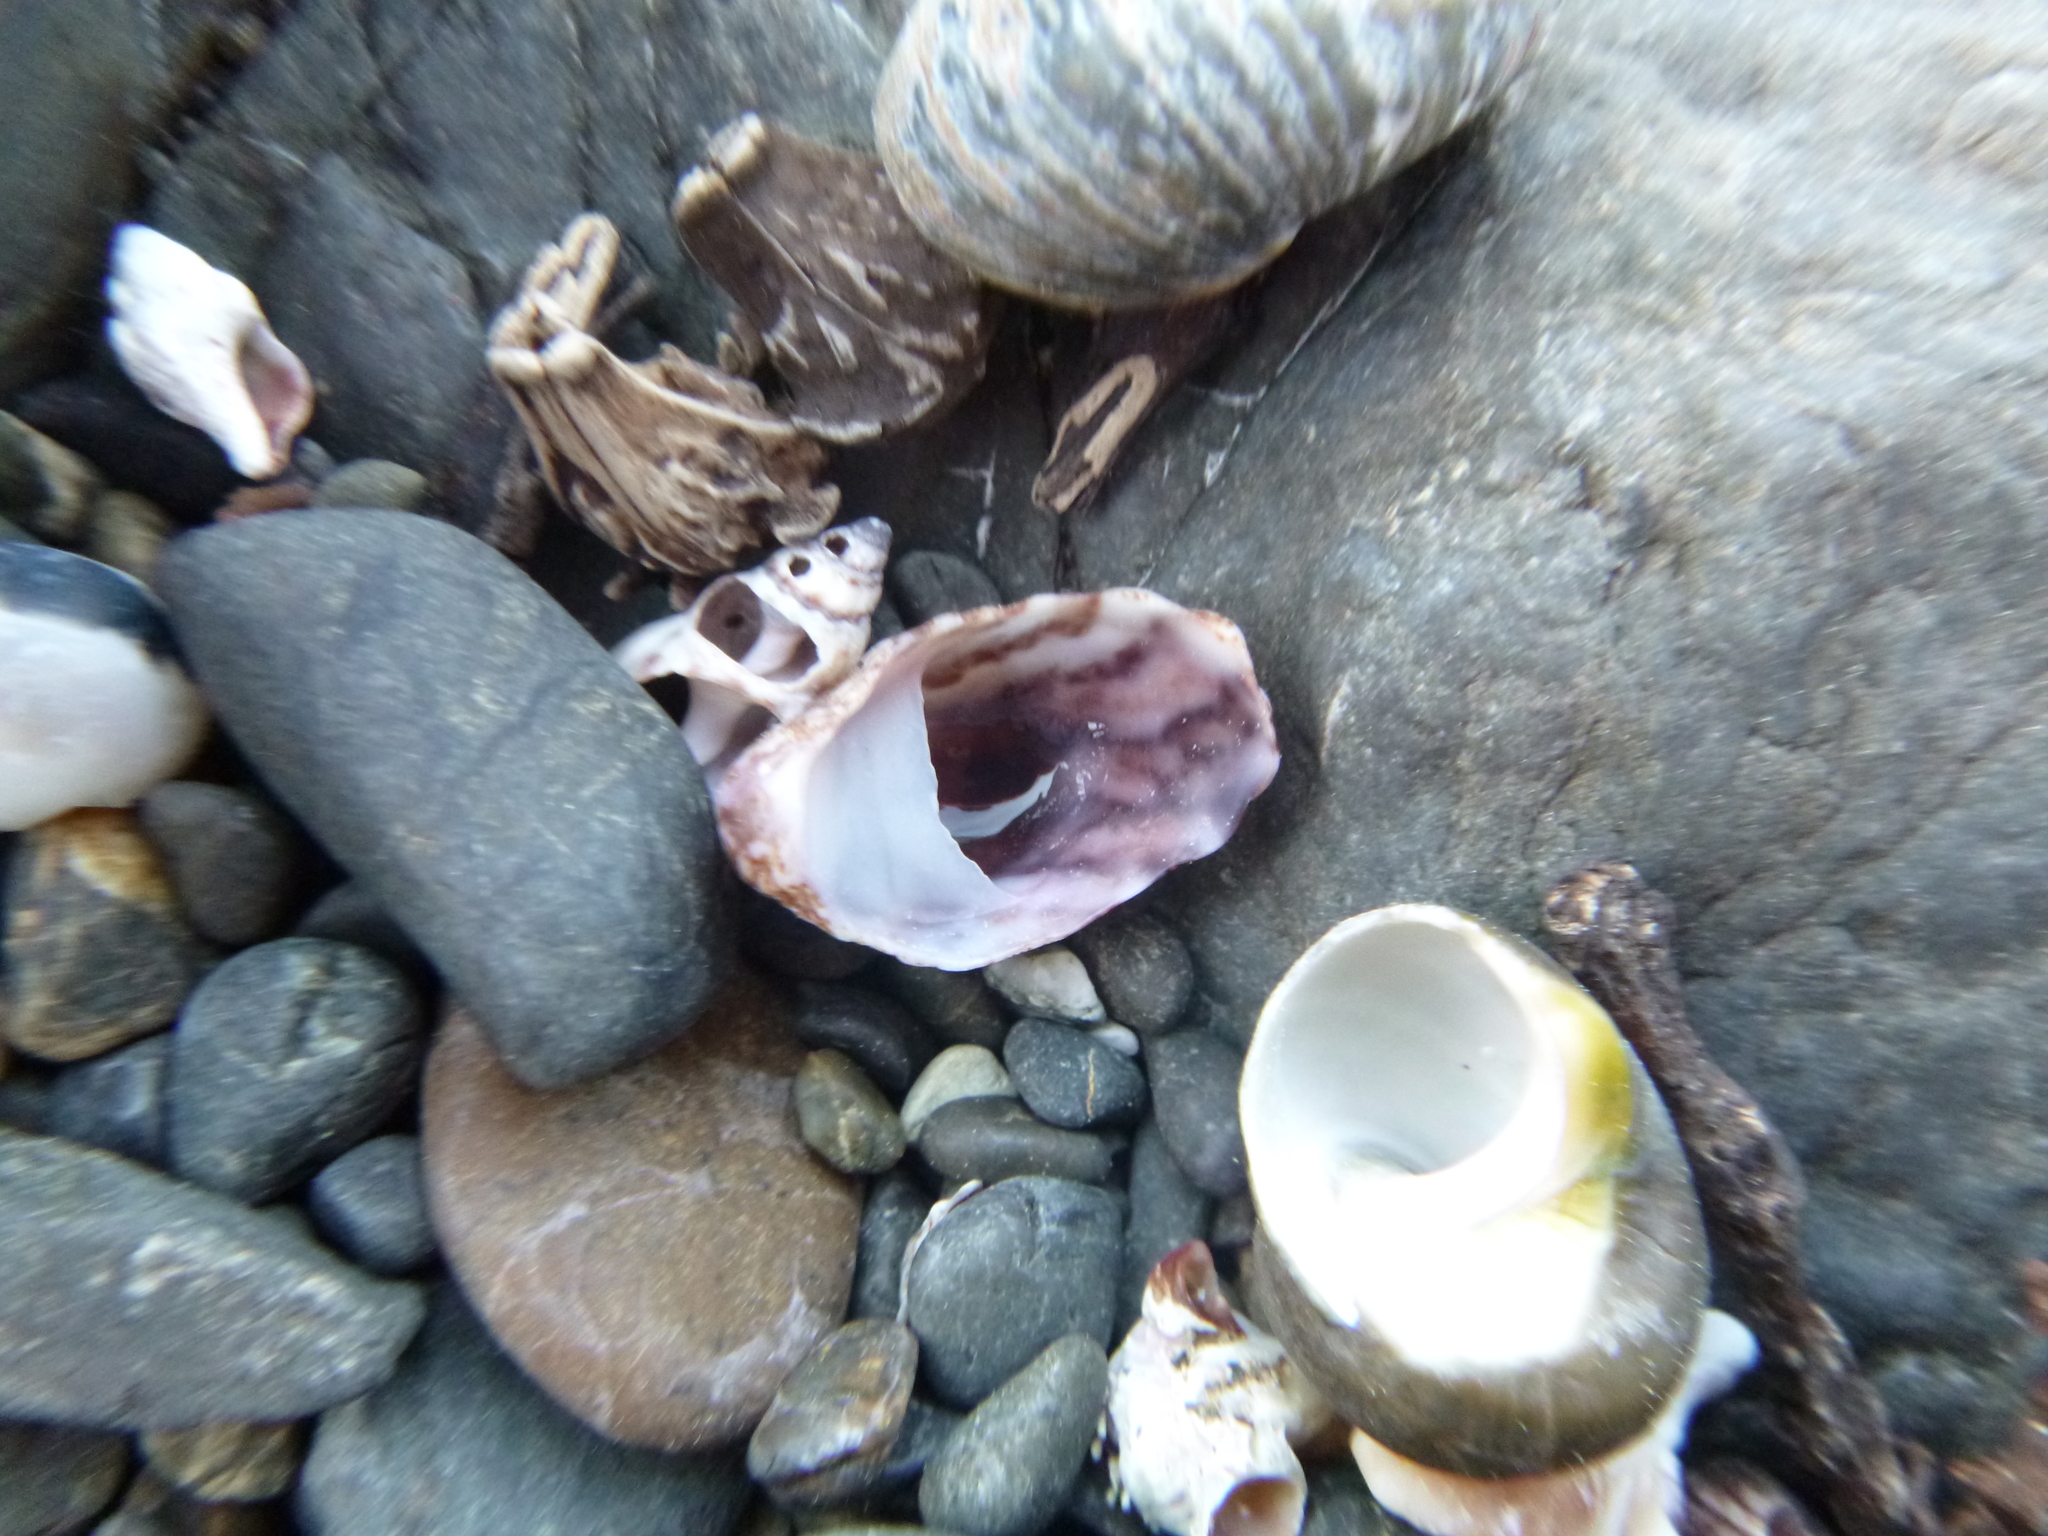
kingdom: Animalia
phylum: Mollusca
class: Gastropoda
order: Littorinimorpha
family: Calyptraeidae
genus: Maoricrypta
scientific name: Maoricrypta costata
